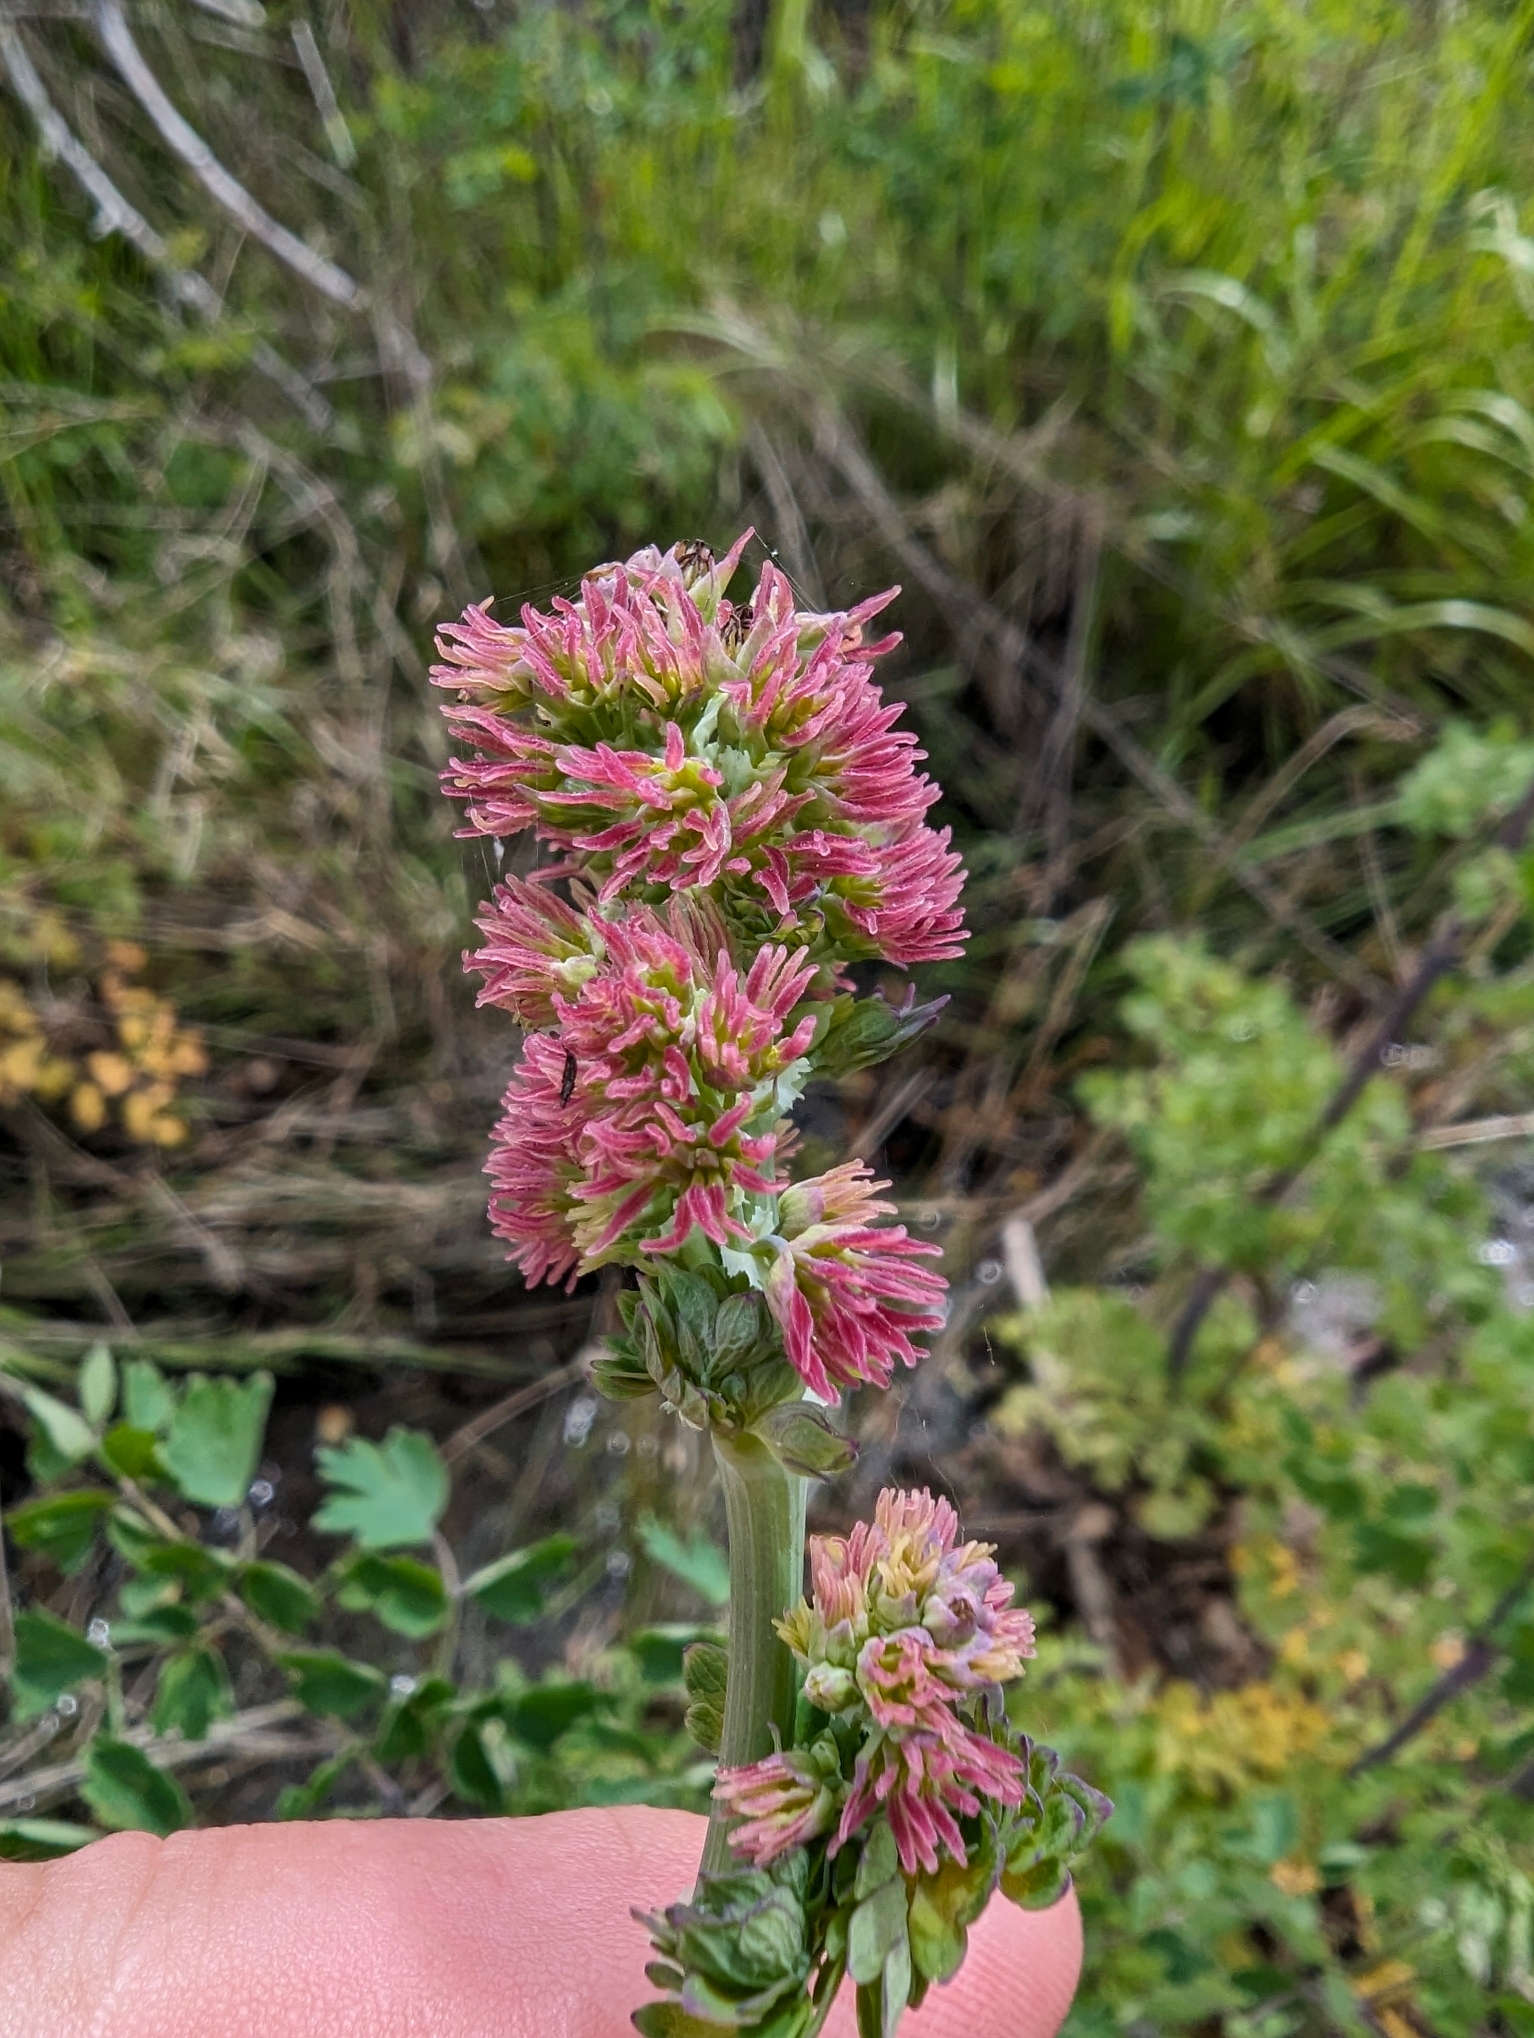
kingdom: Plantae
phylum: Tracheophyta
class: Magnoliopsida
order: Ranunculales
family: Ranunculaceae
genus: Thalictrum
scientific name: Thalictrum fendleri
